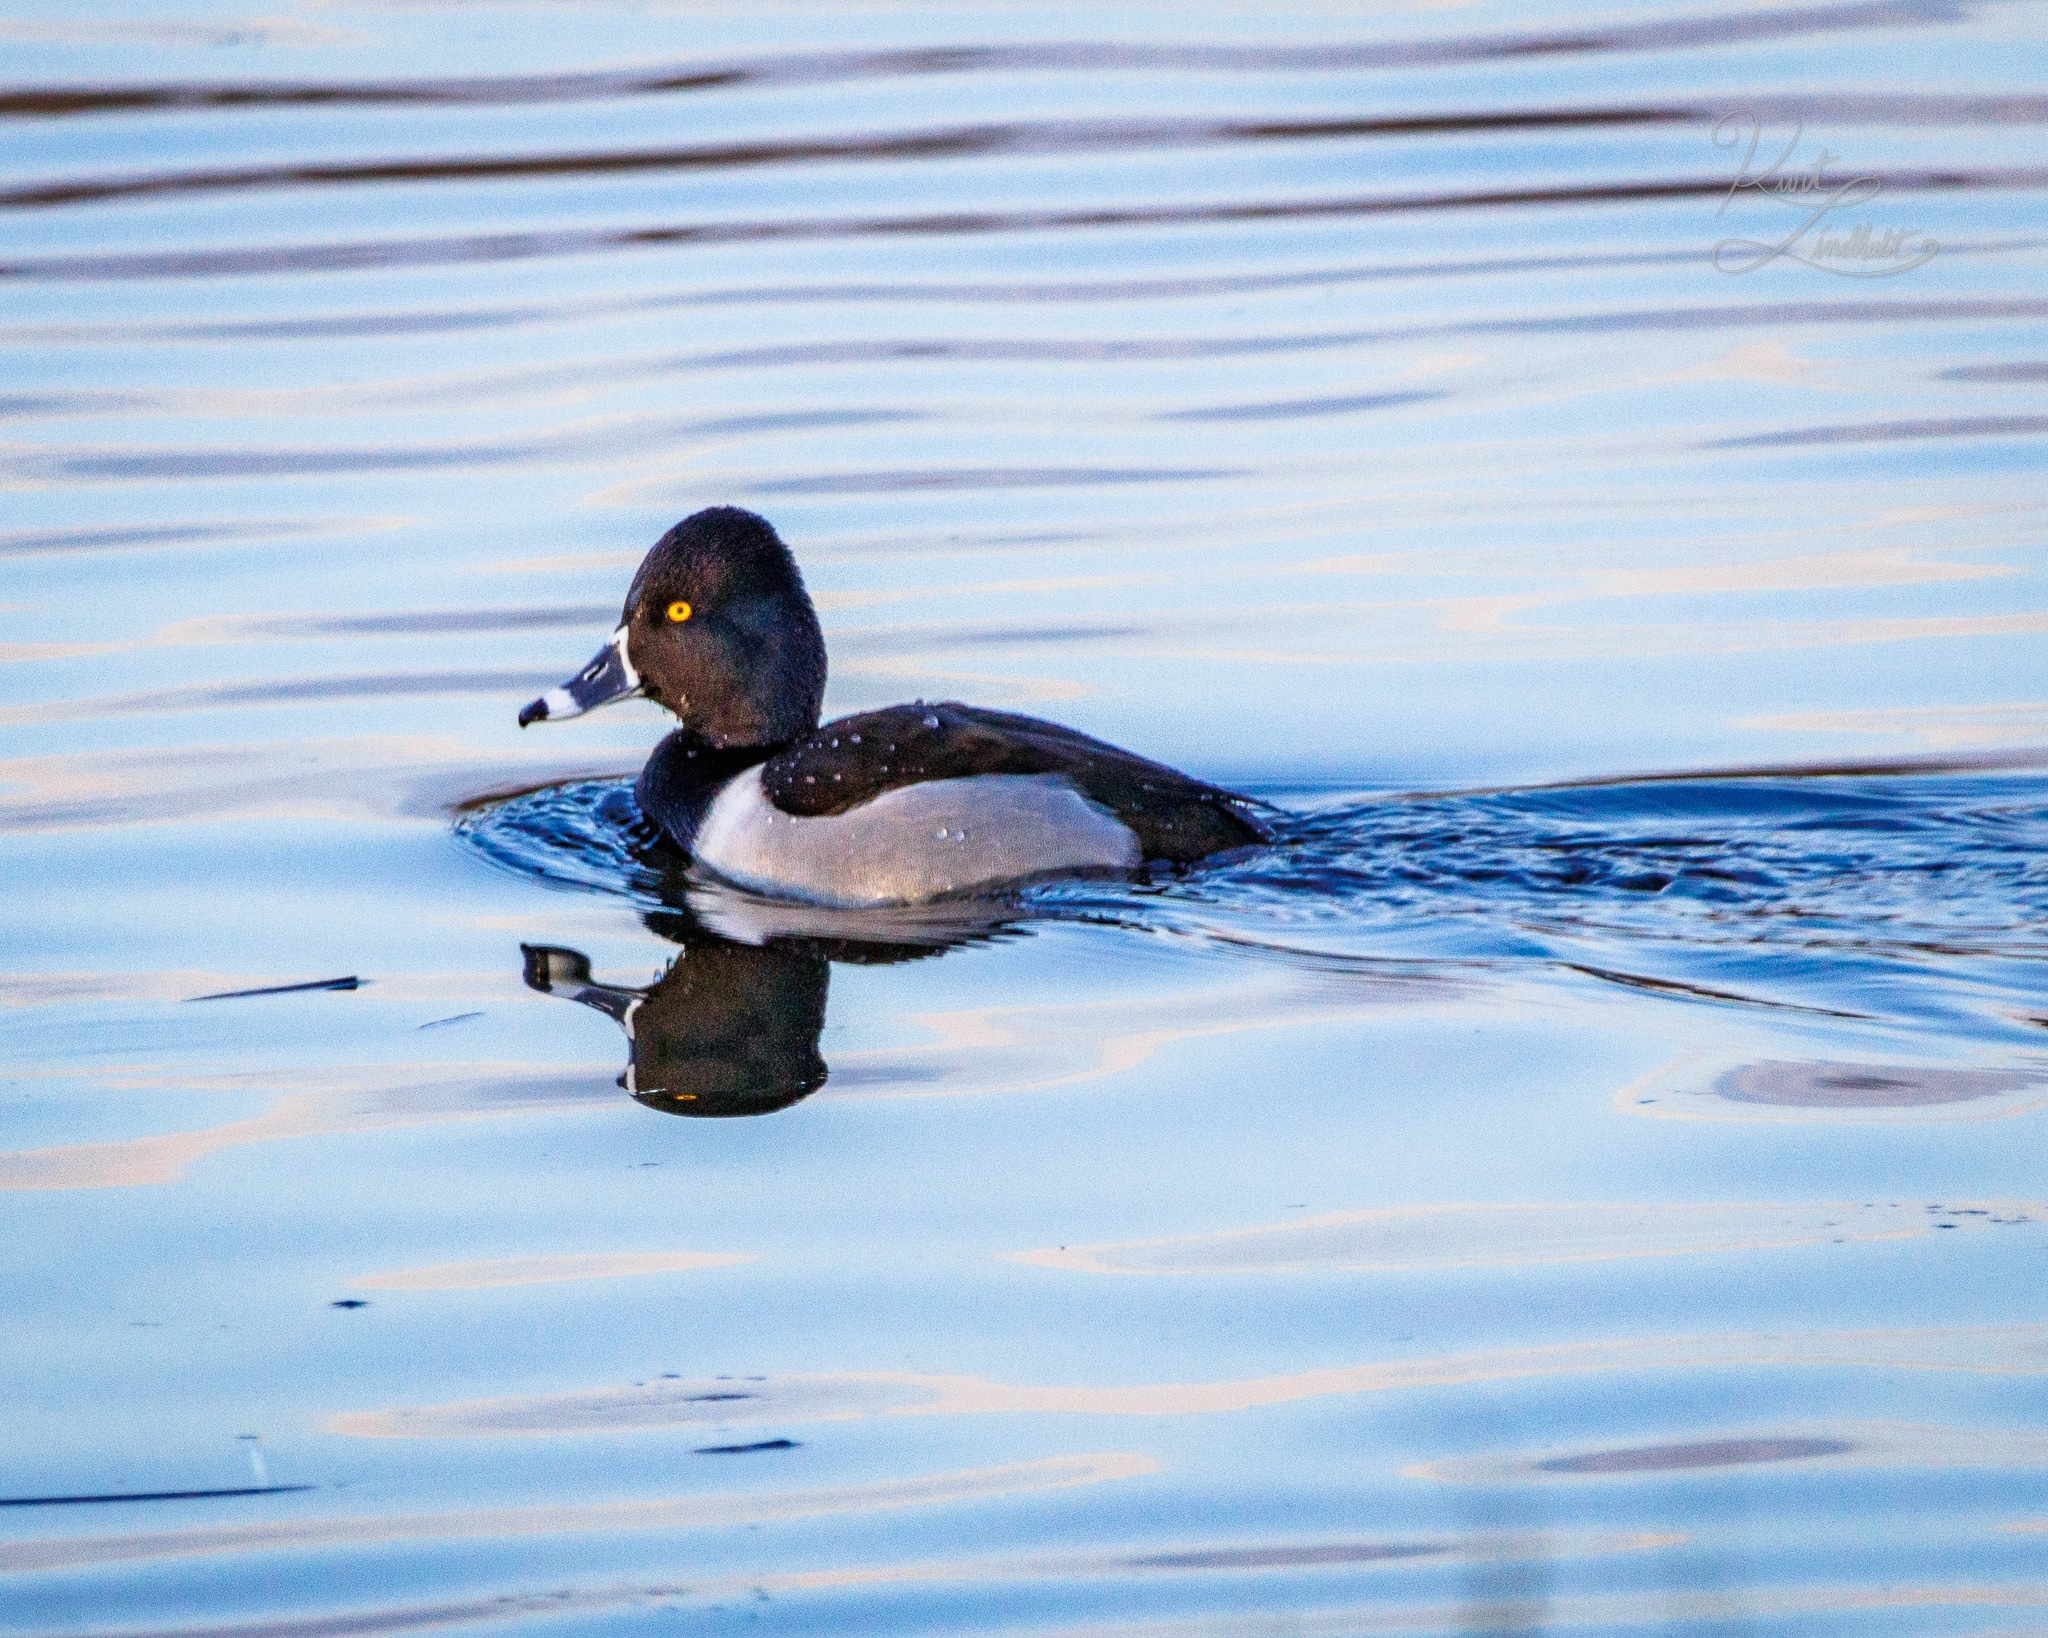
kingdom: Animalia
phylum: Chordata
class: Aves
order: Anseriformes
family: Anatidae
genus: Aythya
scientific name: Aythya collaris
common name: Ring-necked duck
